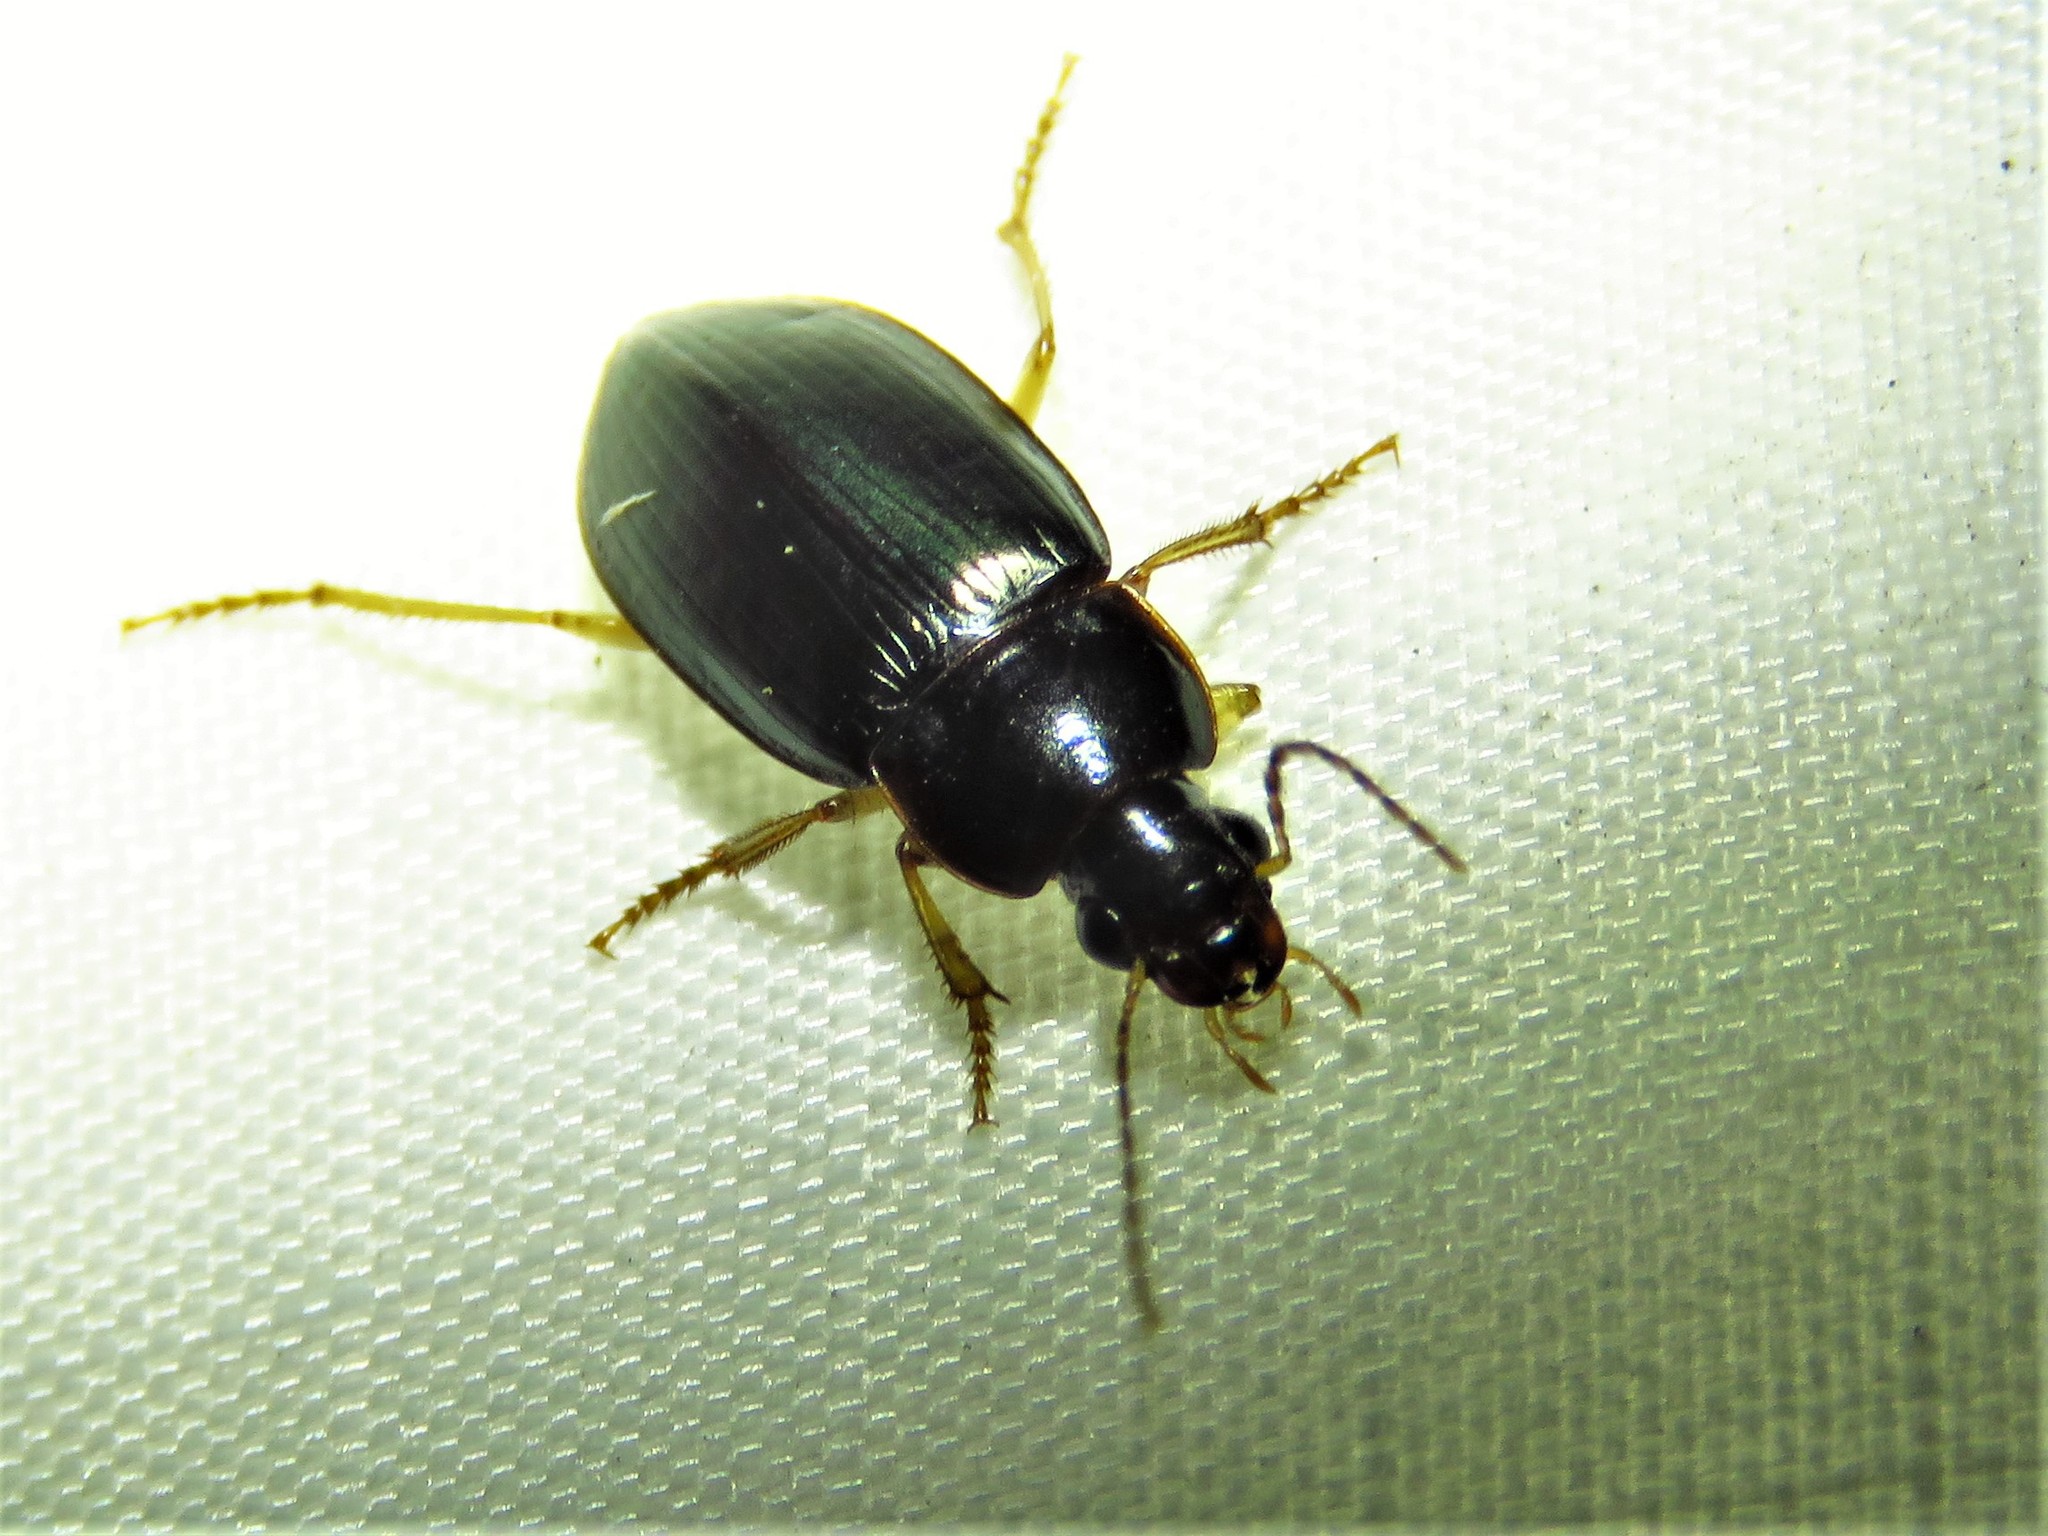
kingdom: Animalia
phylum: Arthropoda
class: Insecta
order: Coleoptera
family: Carabidae
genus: Notiobia
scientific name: Notiobia terminata
